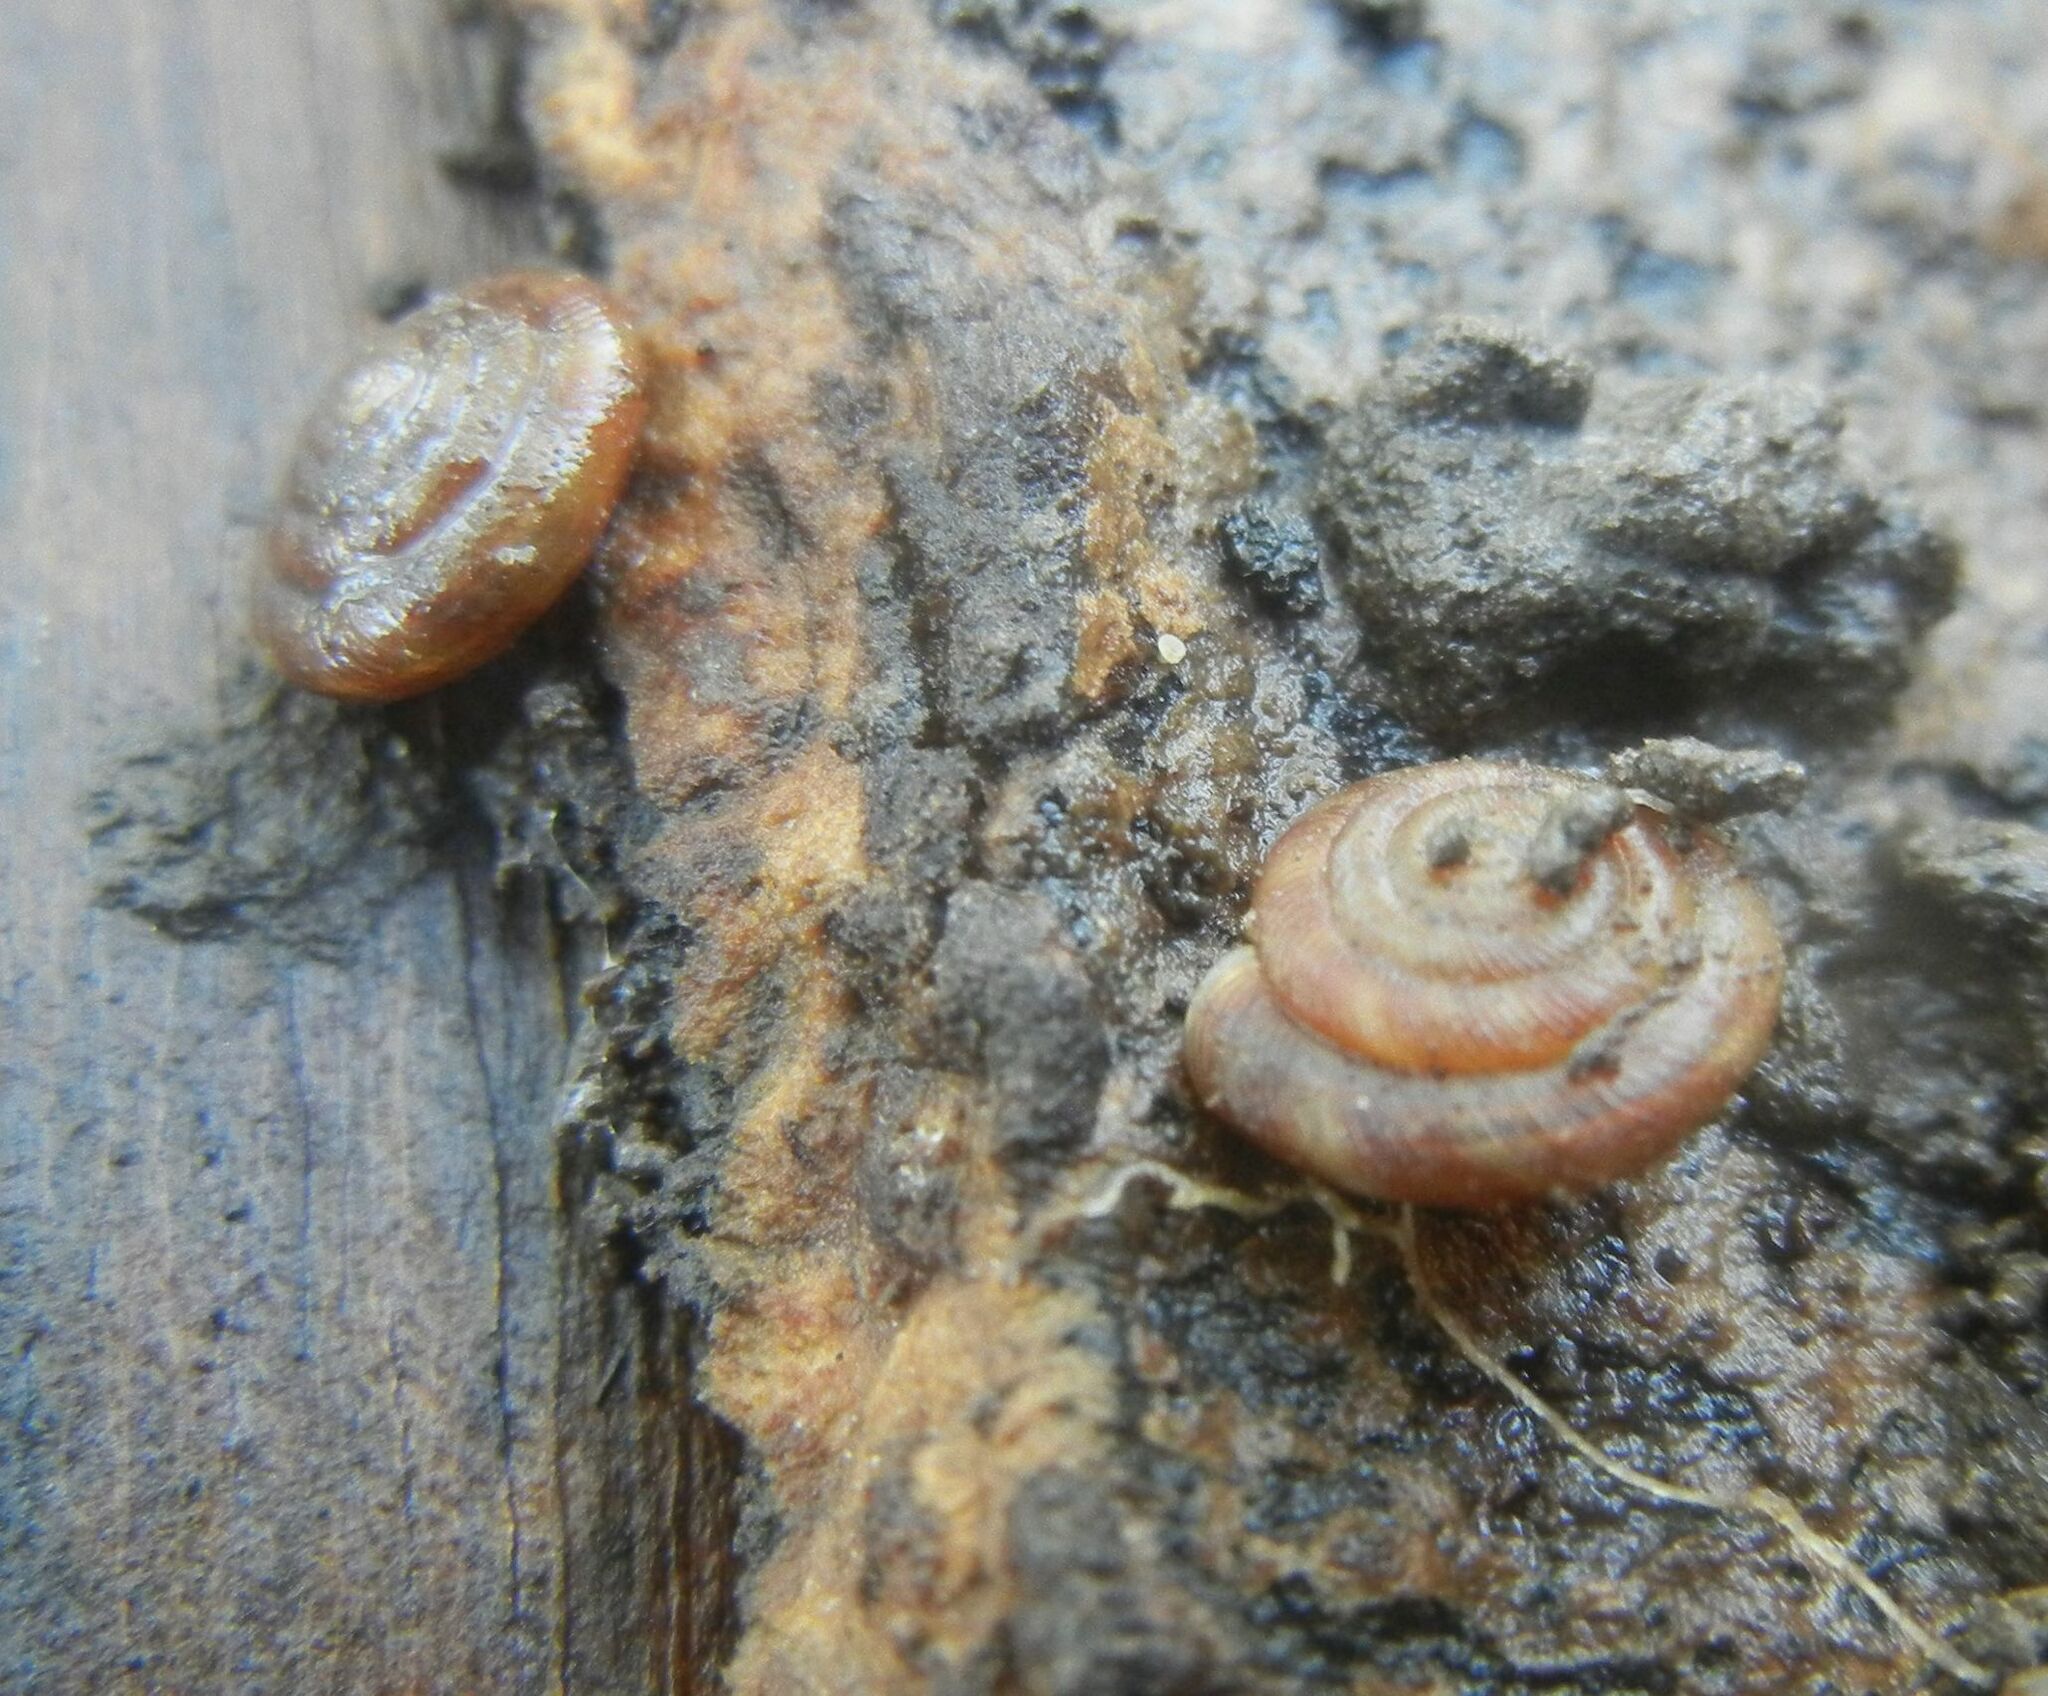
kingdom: Animalia
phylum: Mollusca
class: Gastropoda
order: Stylommatophora
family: Discidae
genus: Discus
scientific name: Discus rotundatus
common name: Rounded snail
